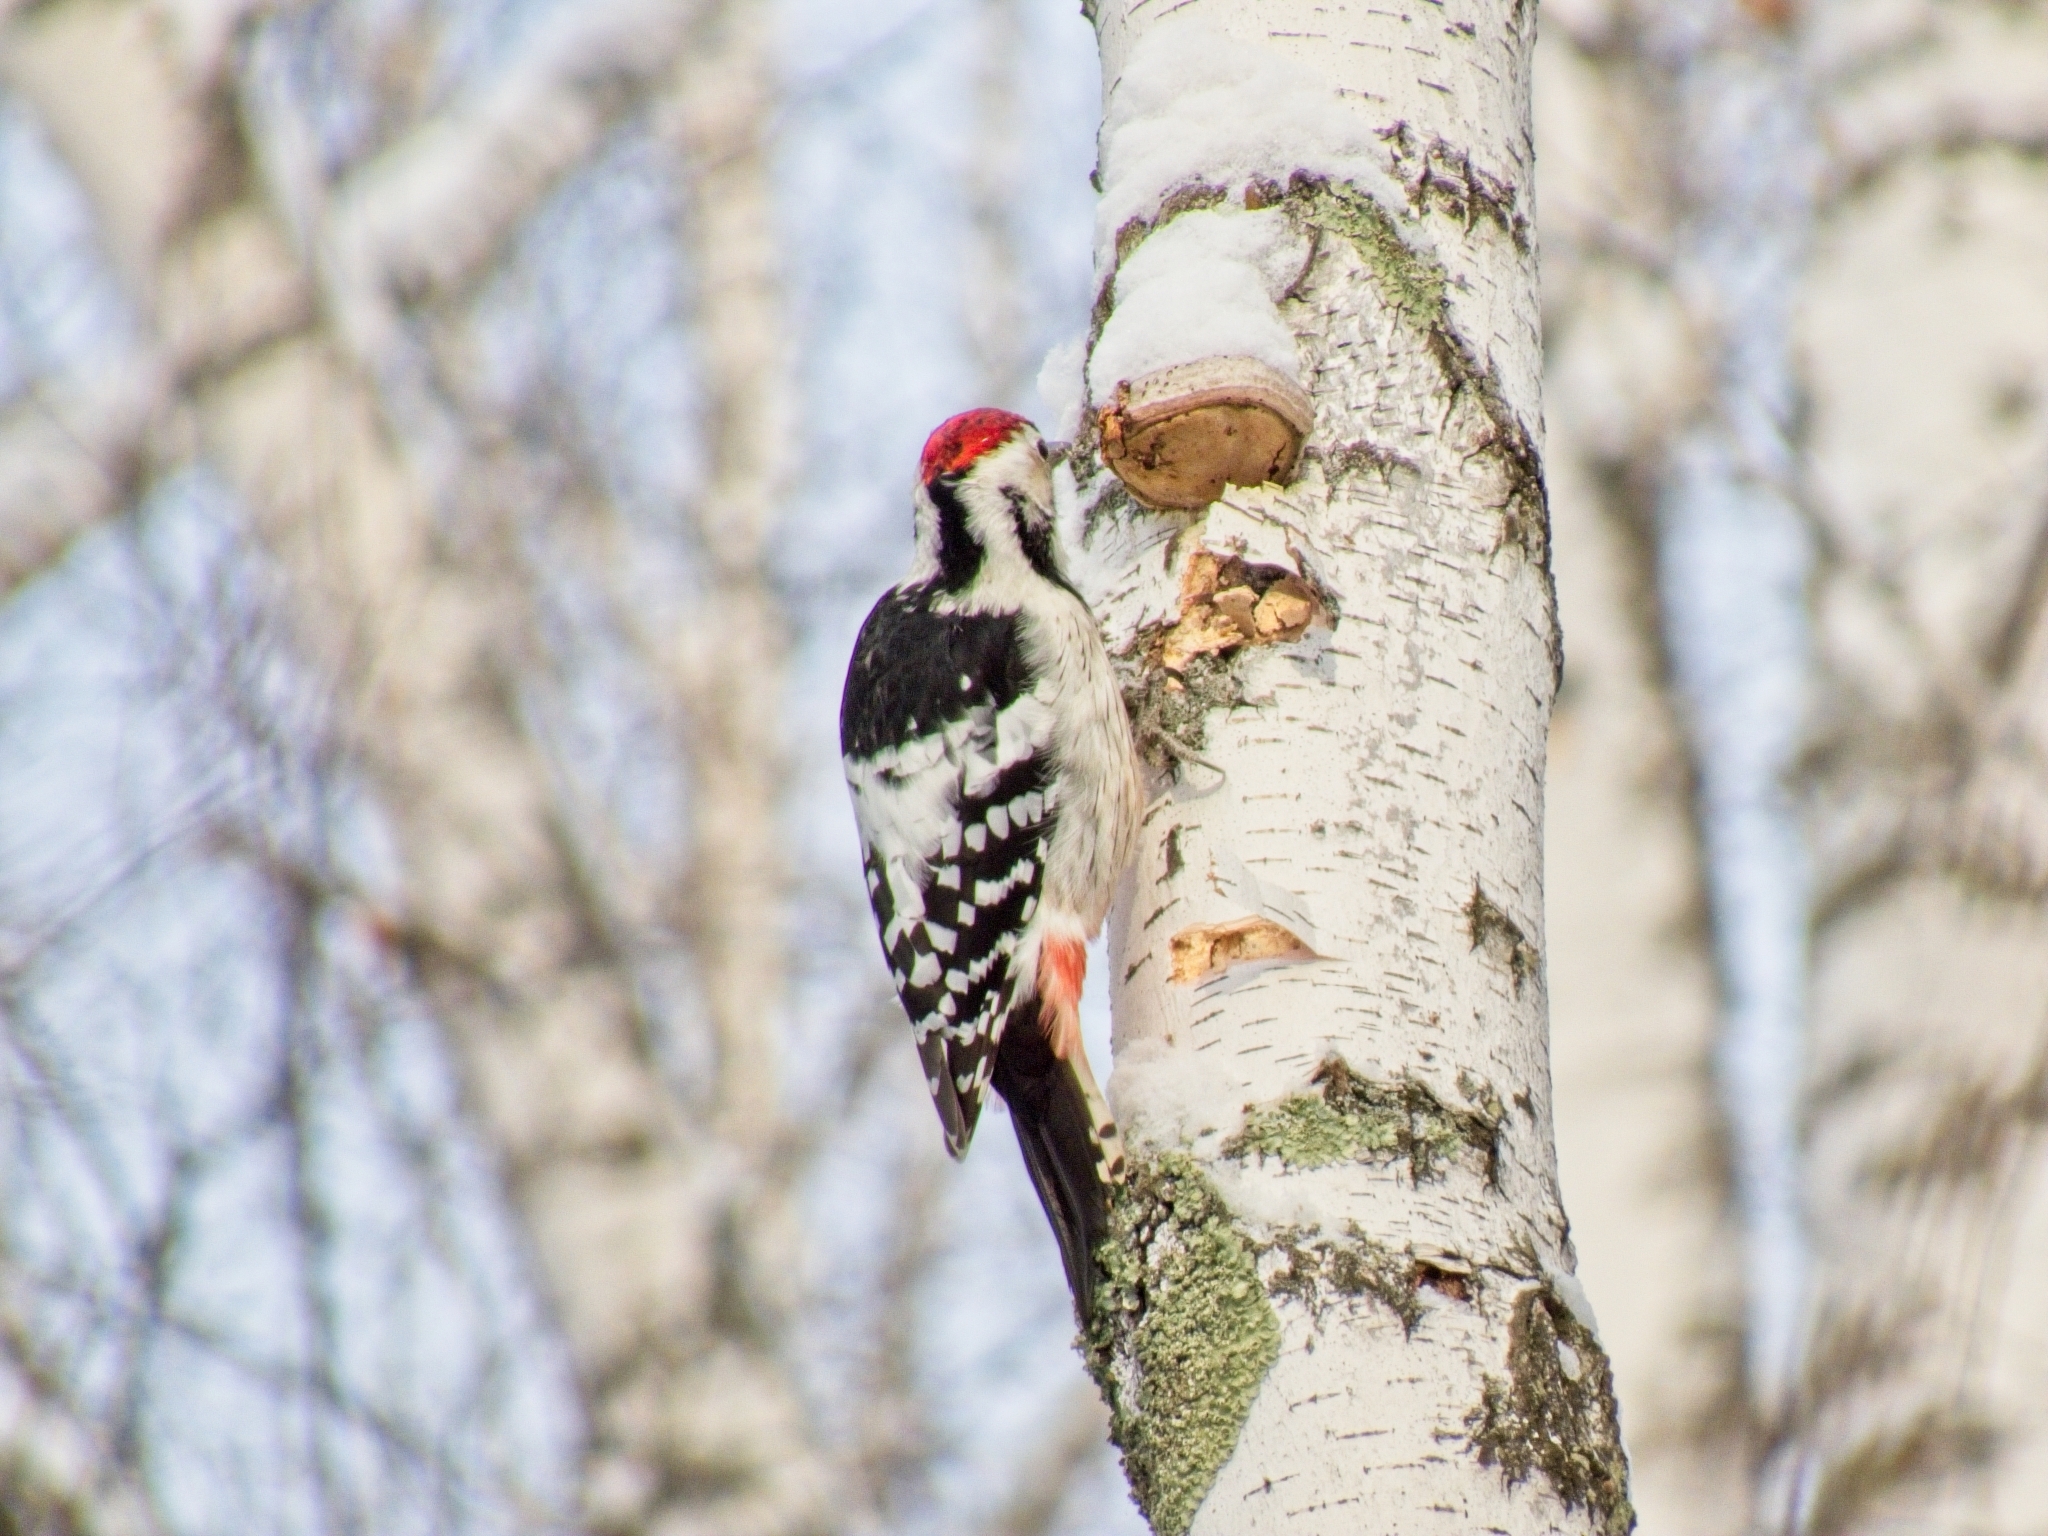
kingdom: Animalia
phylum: Chordata
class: Aves
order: Piciformes
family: Picidae
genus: Dendrocopos
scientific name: Dendrocopos leucotos
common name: White-backed woodpecker
